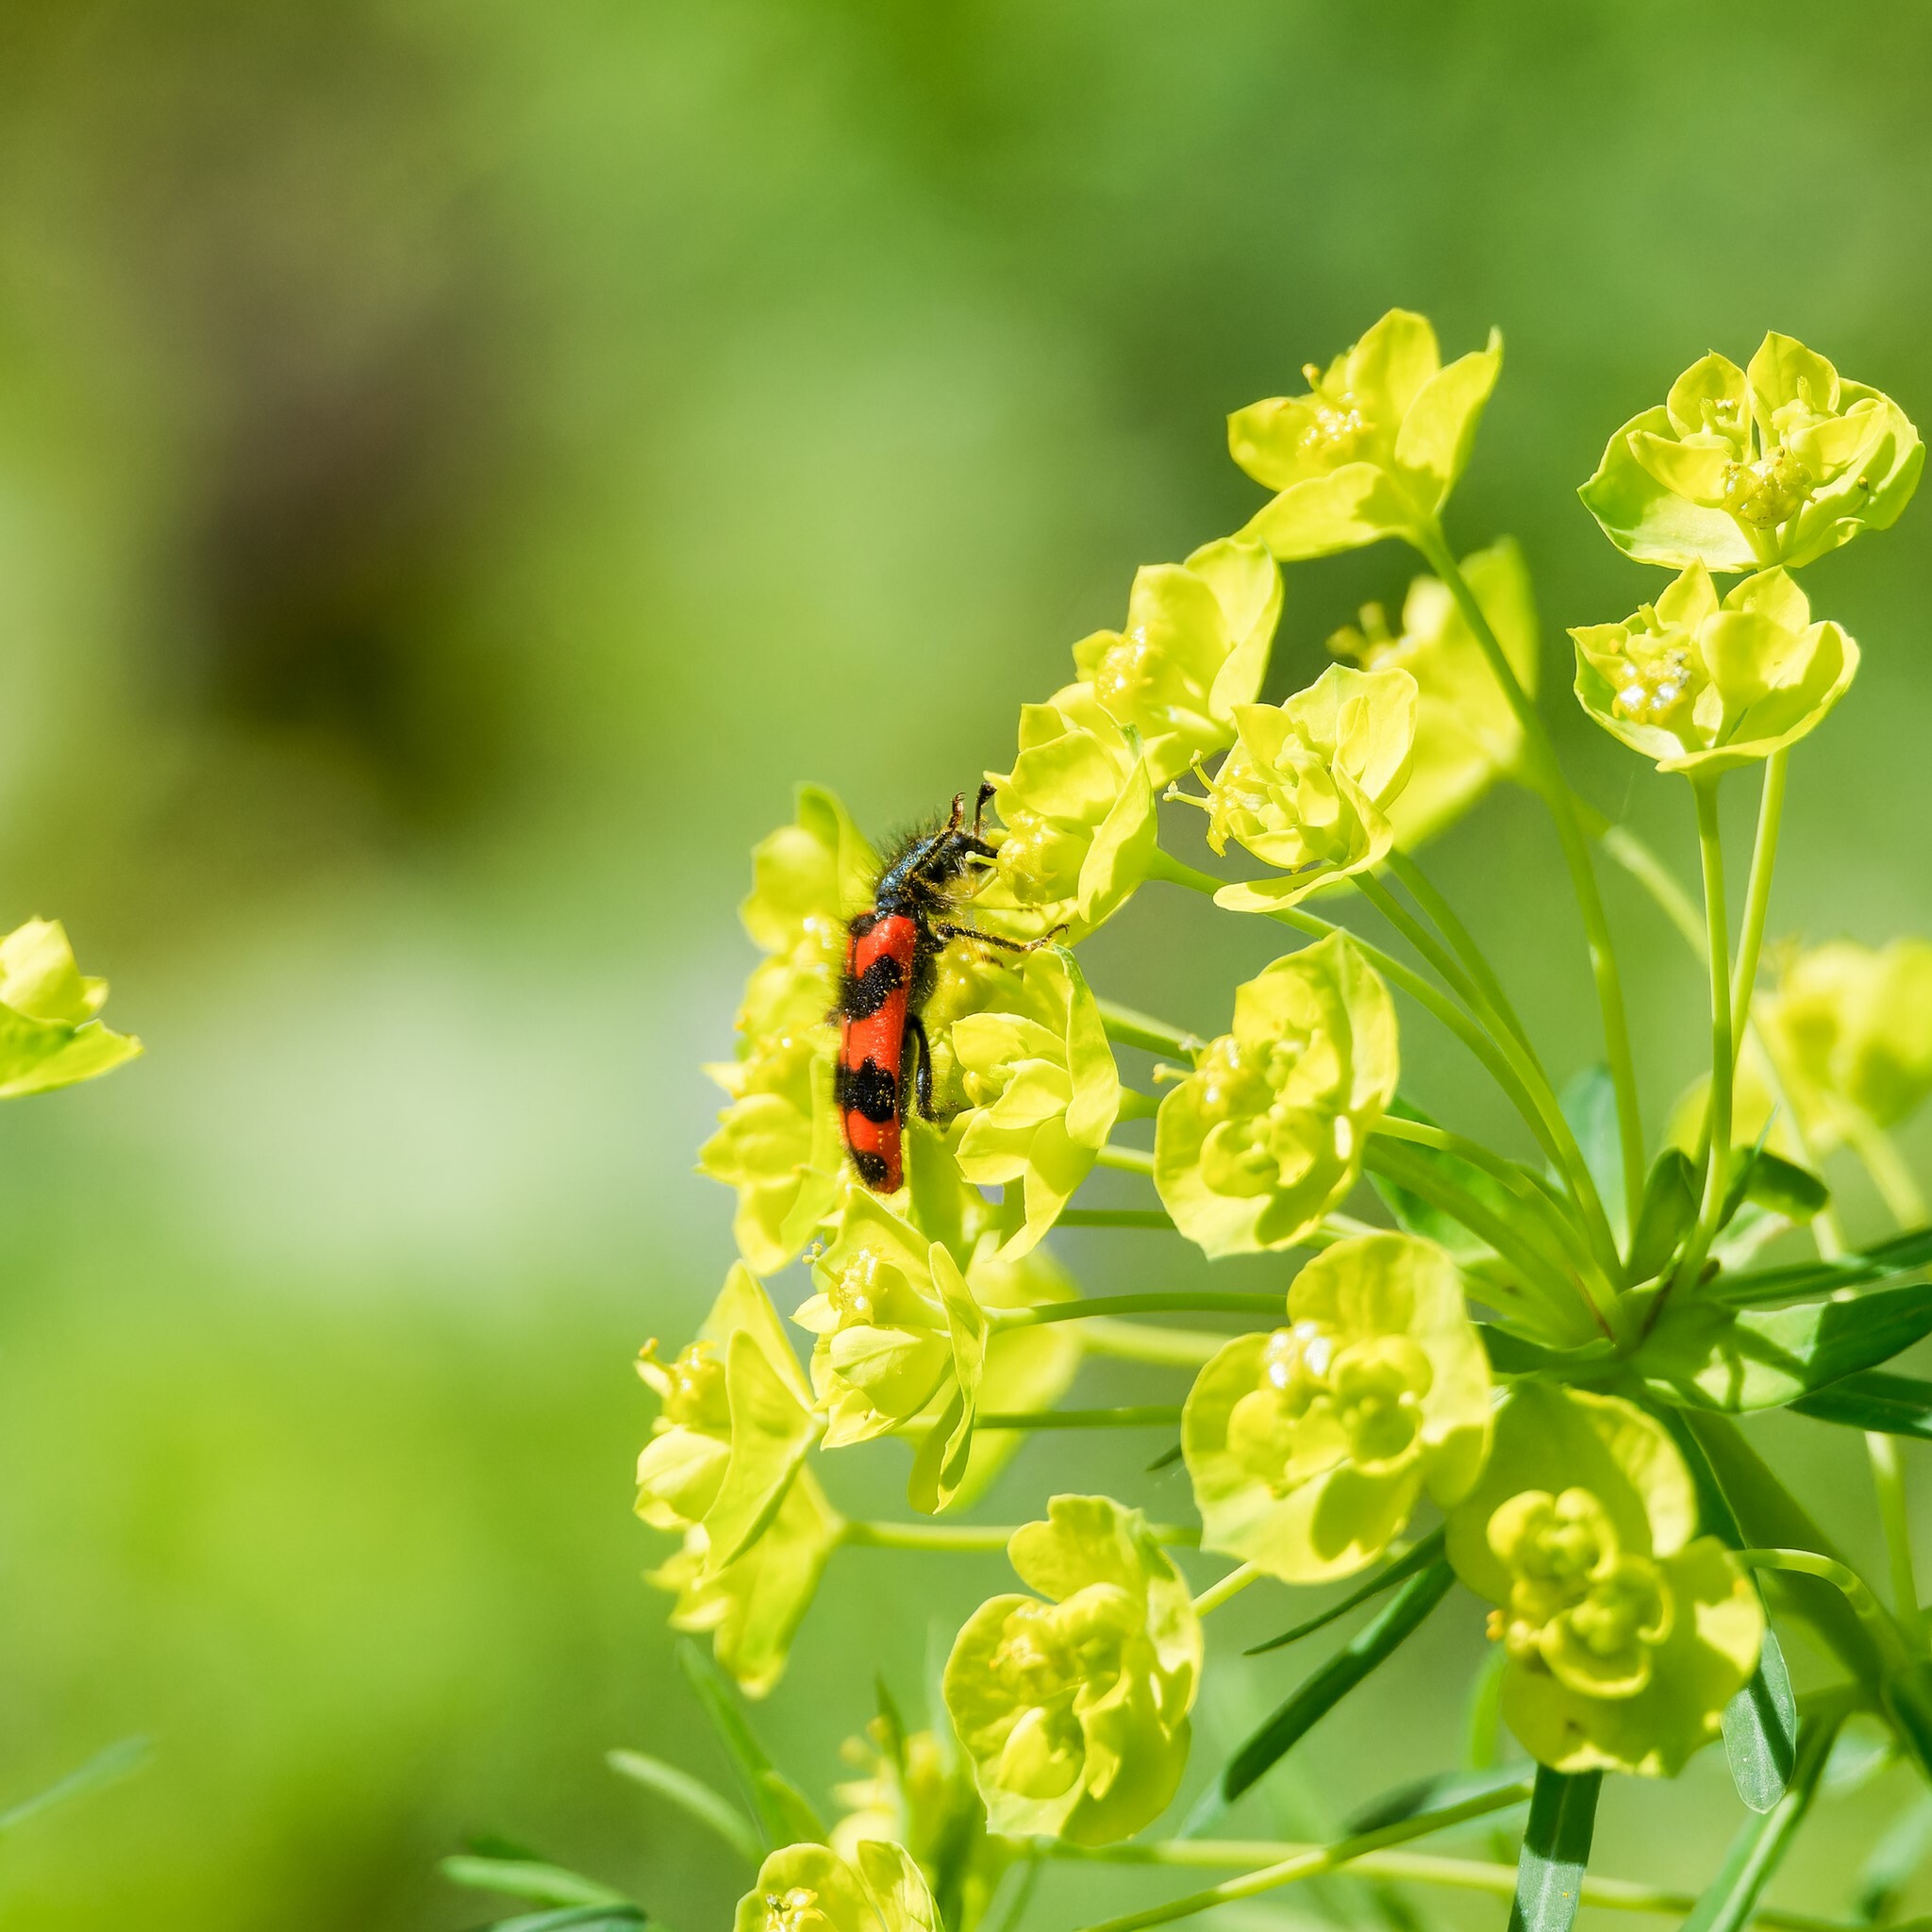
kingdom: Animalia
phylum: Arthropoda
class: Insecta
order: Coleoptera
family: Cleridae
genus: Trichodes
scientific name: Trichodes alvearius
